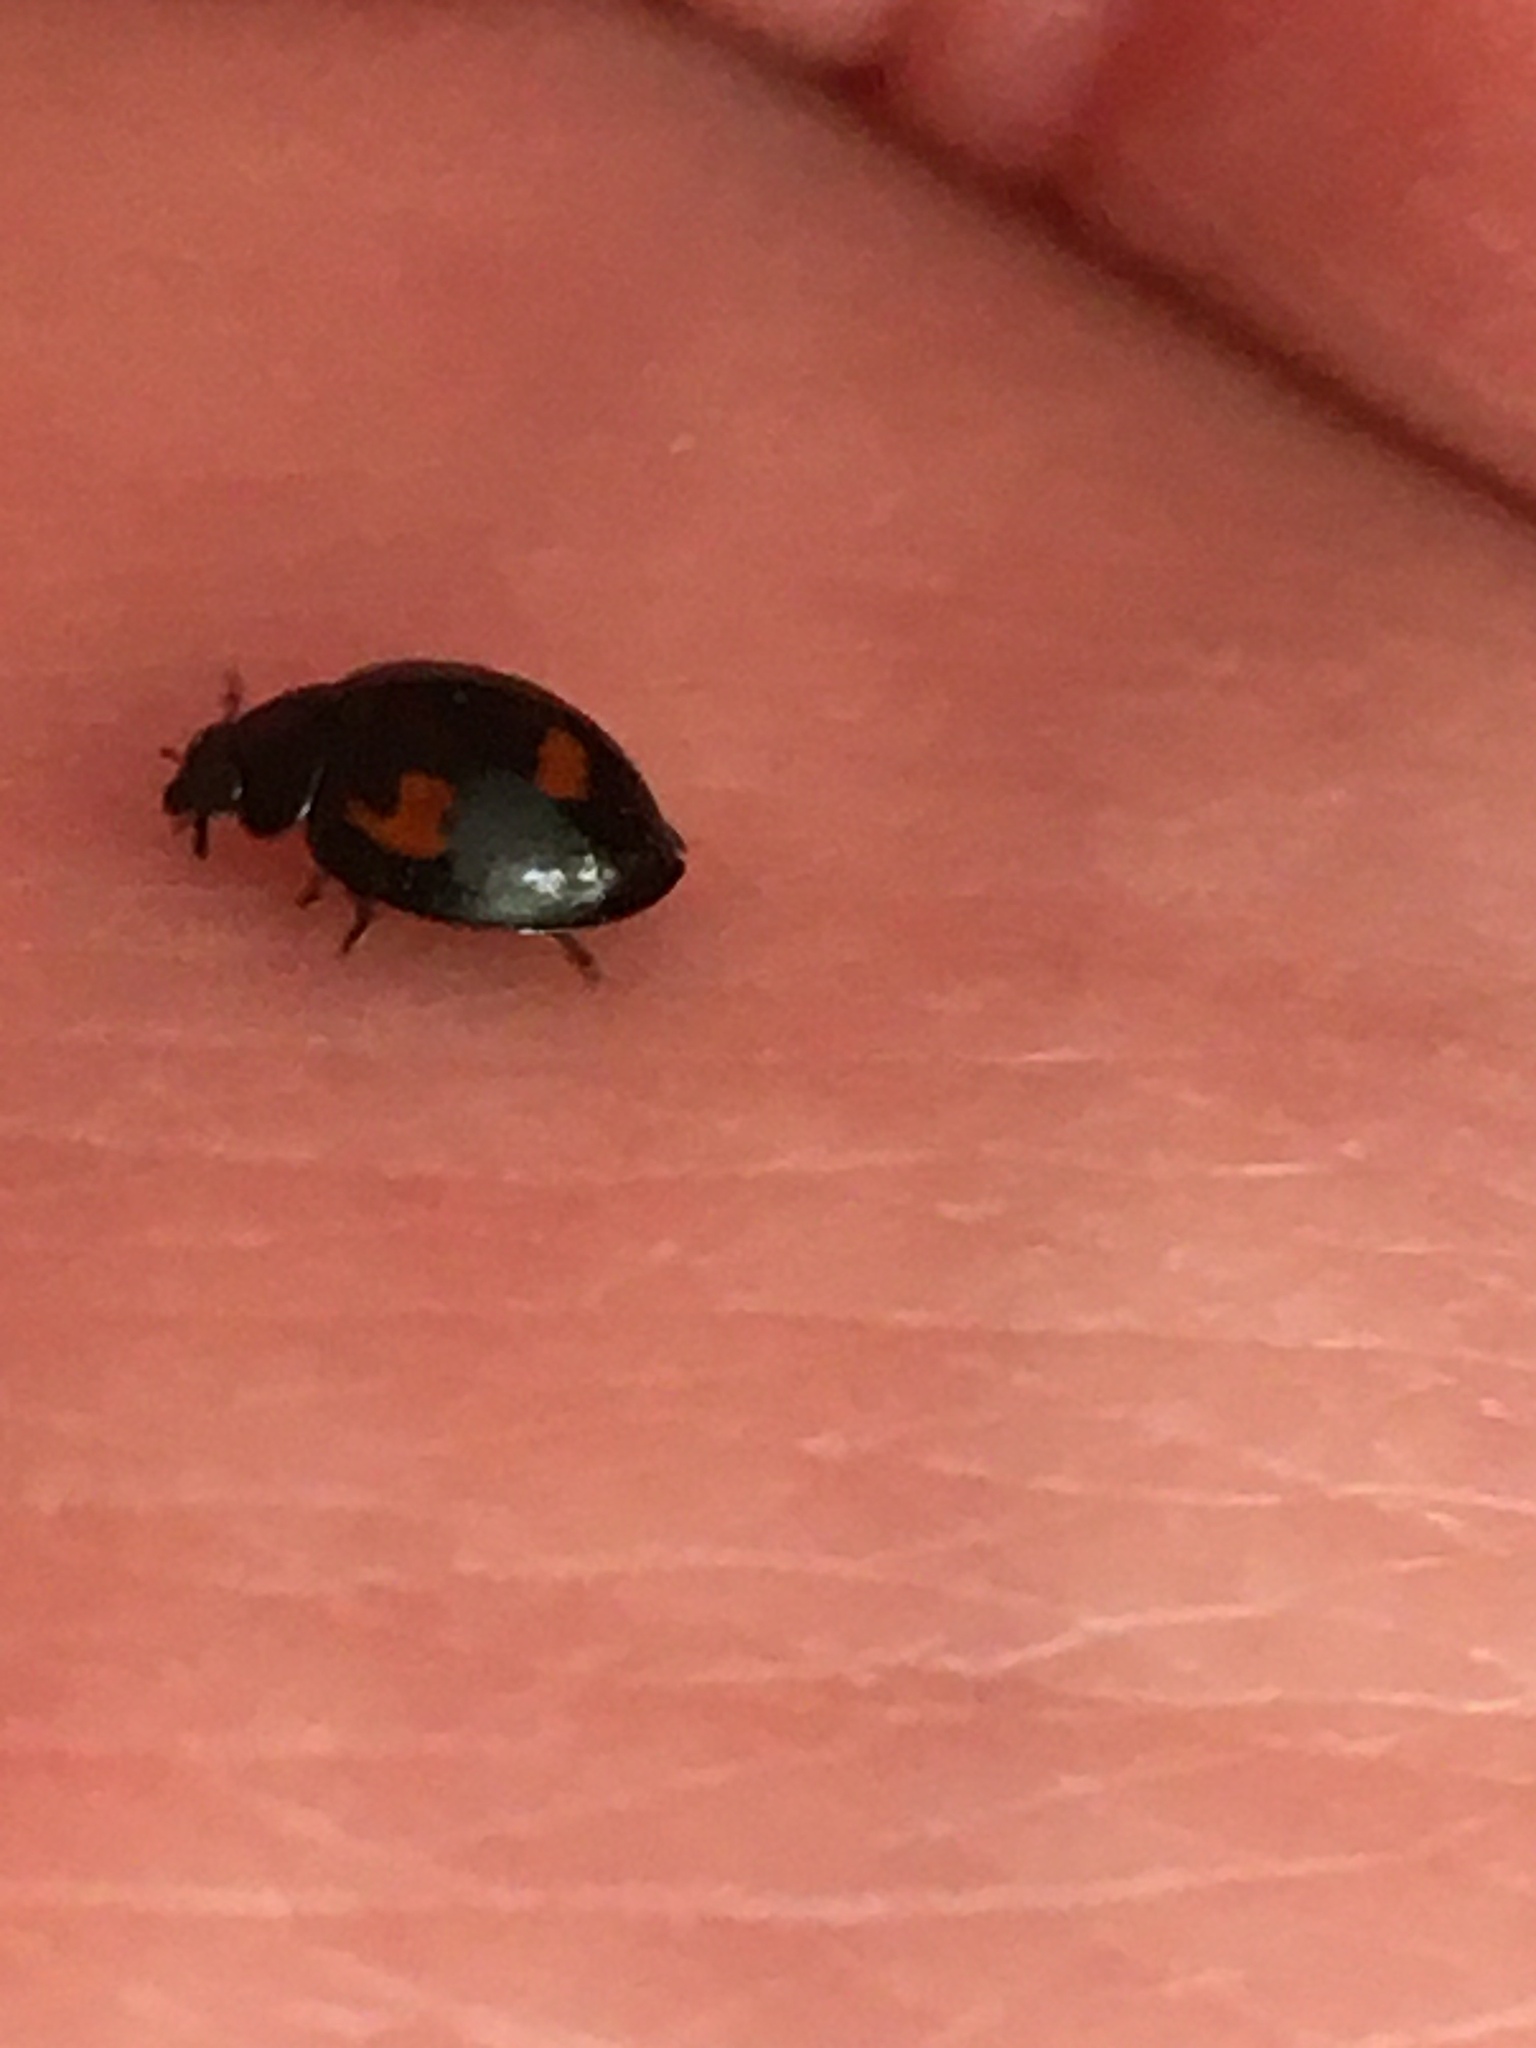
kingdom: Animalia
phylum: Arthropoda
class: Insecta
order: Coleoptera
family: Coccinellidae
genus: Brumus
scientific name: Brumus quadripustulatus
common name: Ladybird beetle
